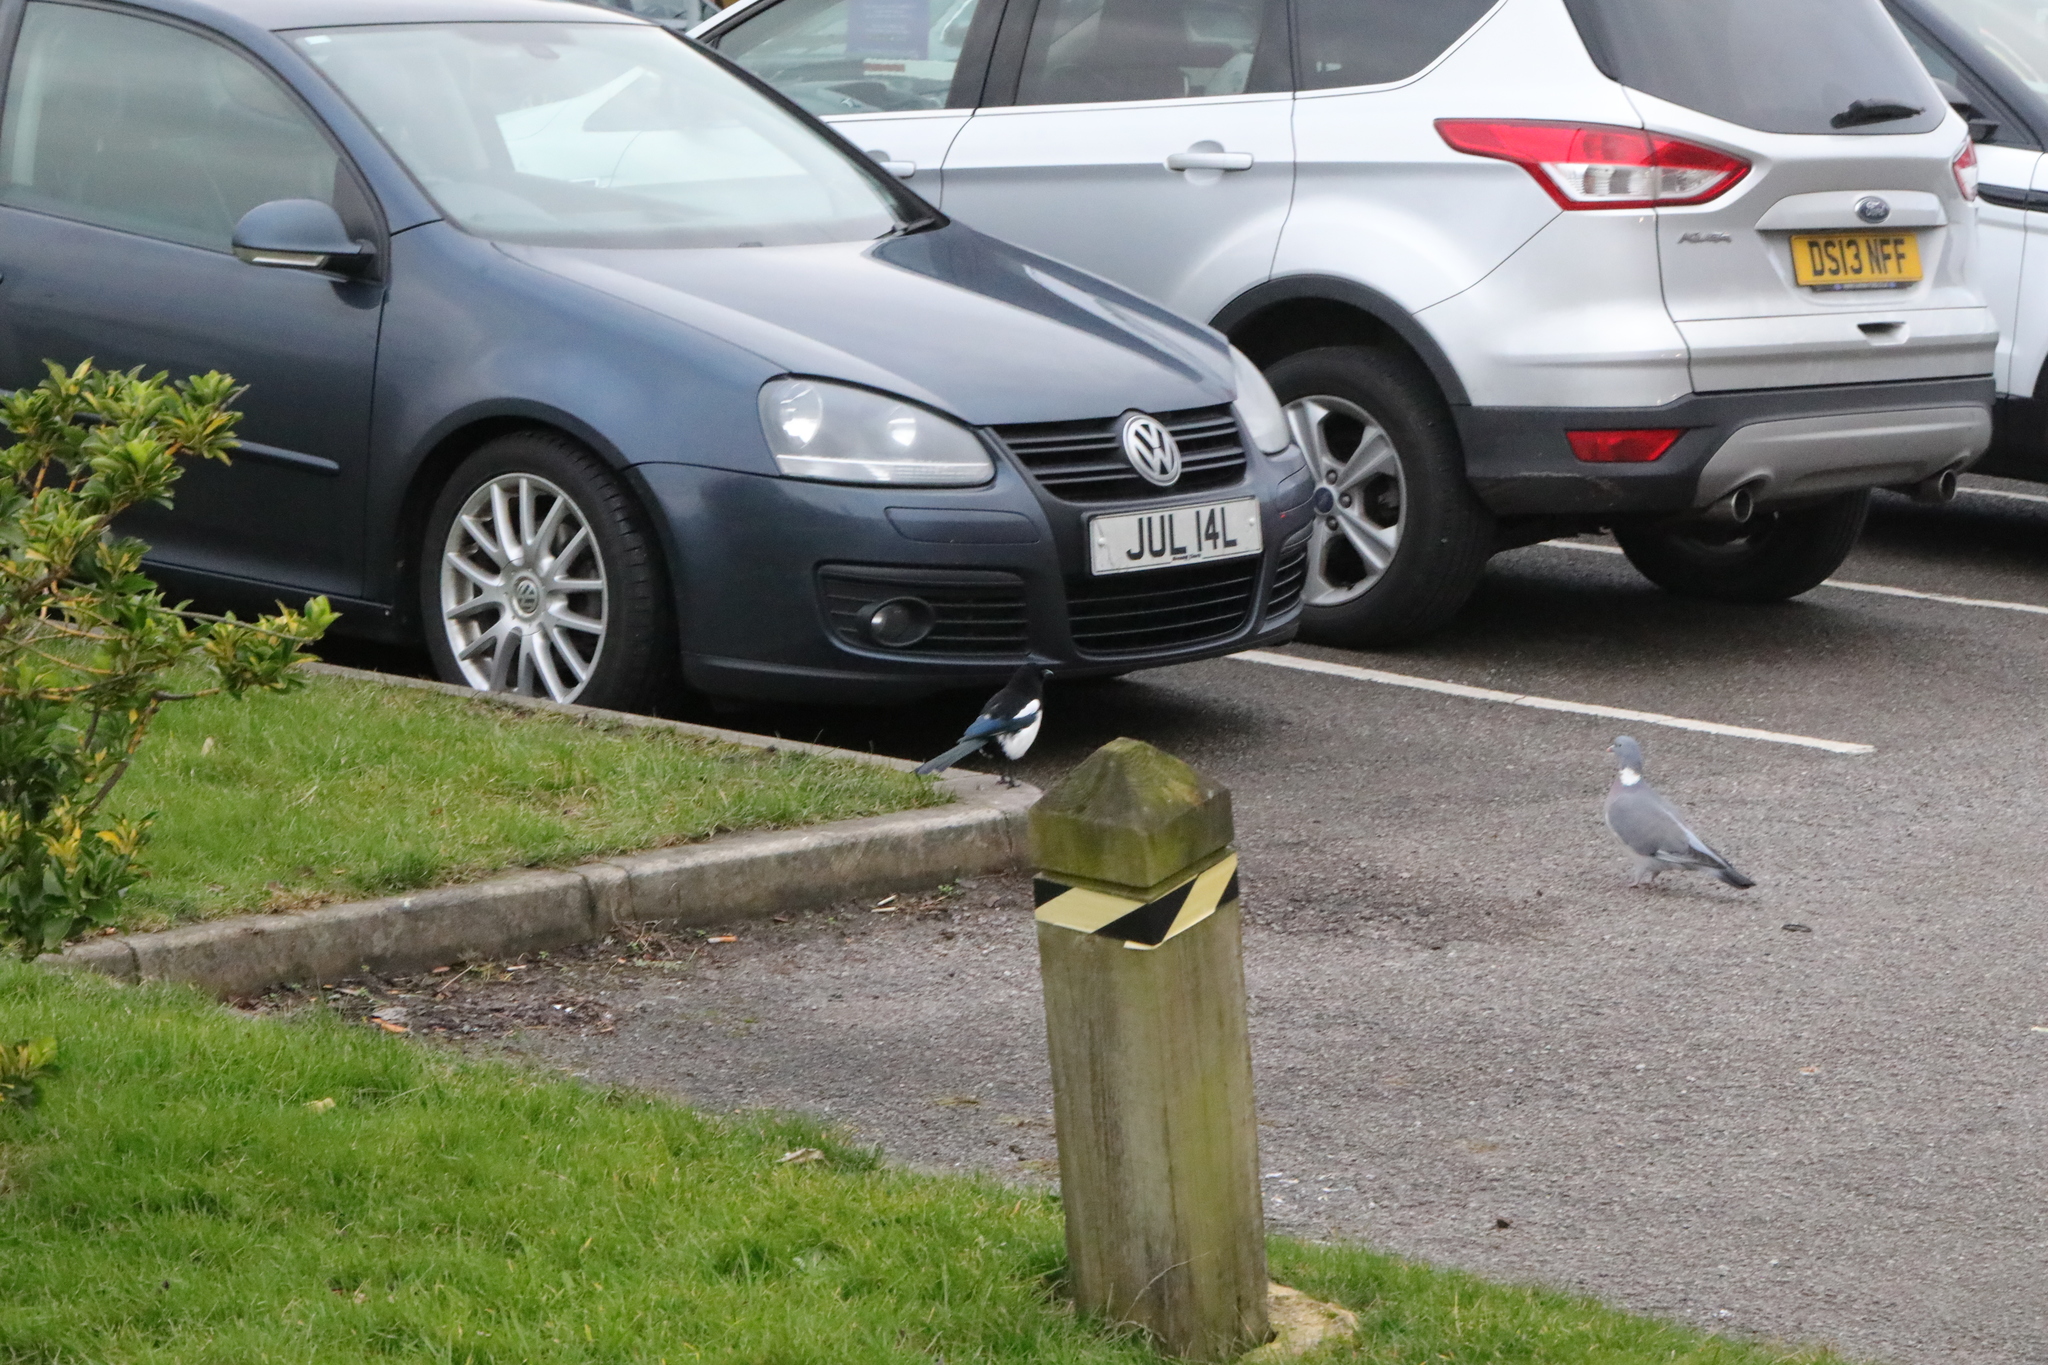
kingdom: Animalia
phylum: Chordata
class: Aves
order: Passeriformes
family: Corvidae
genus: Pica
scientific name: Pica pica
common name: Eurasian magpie
